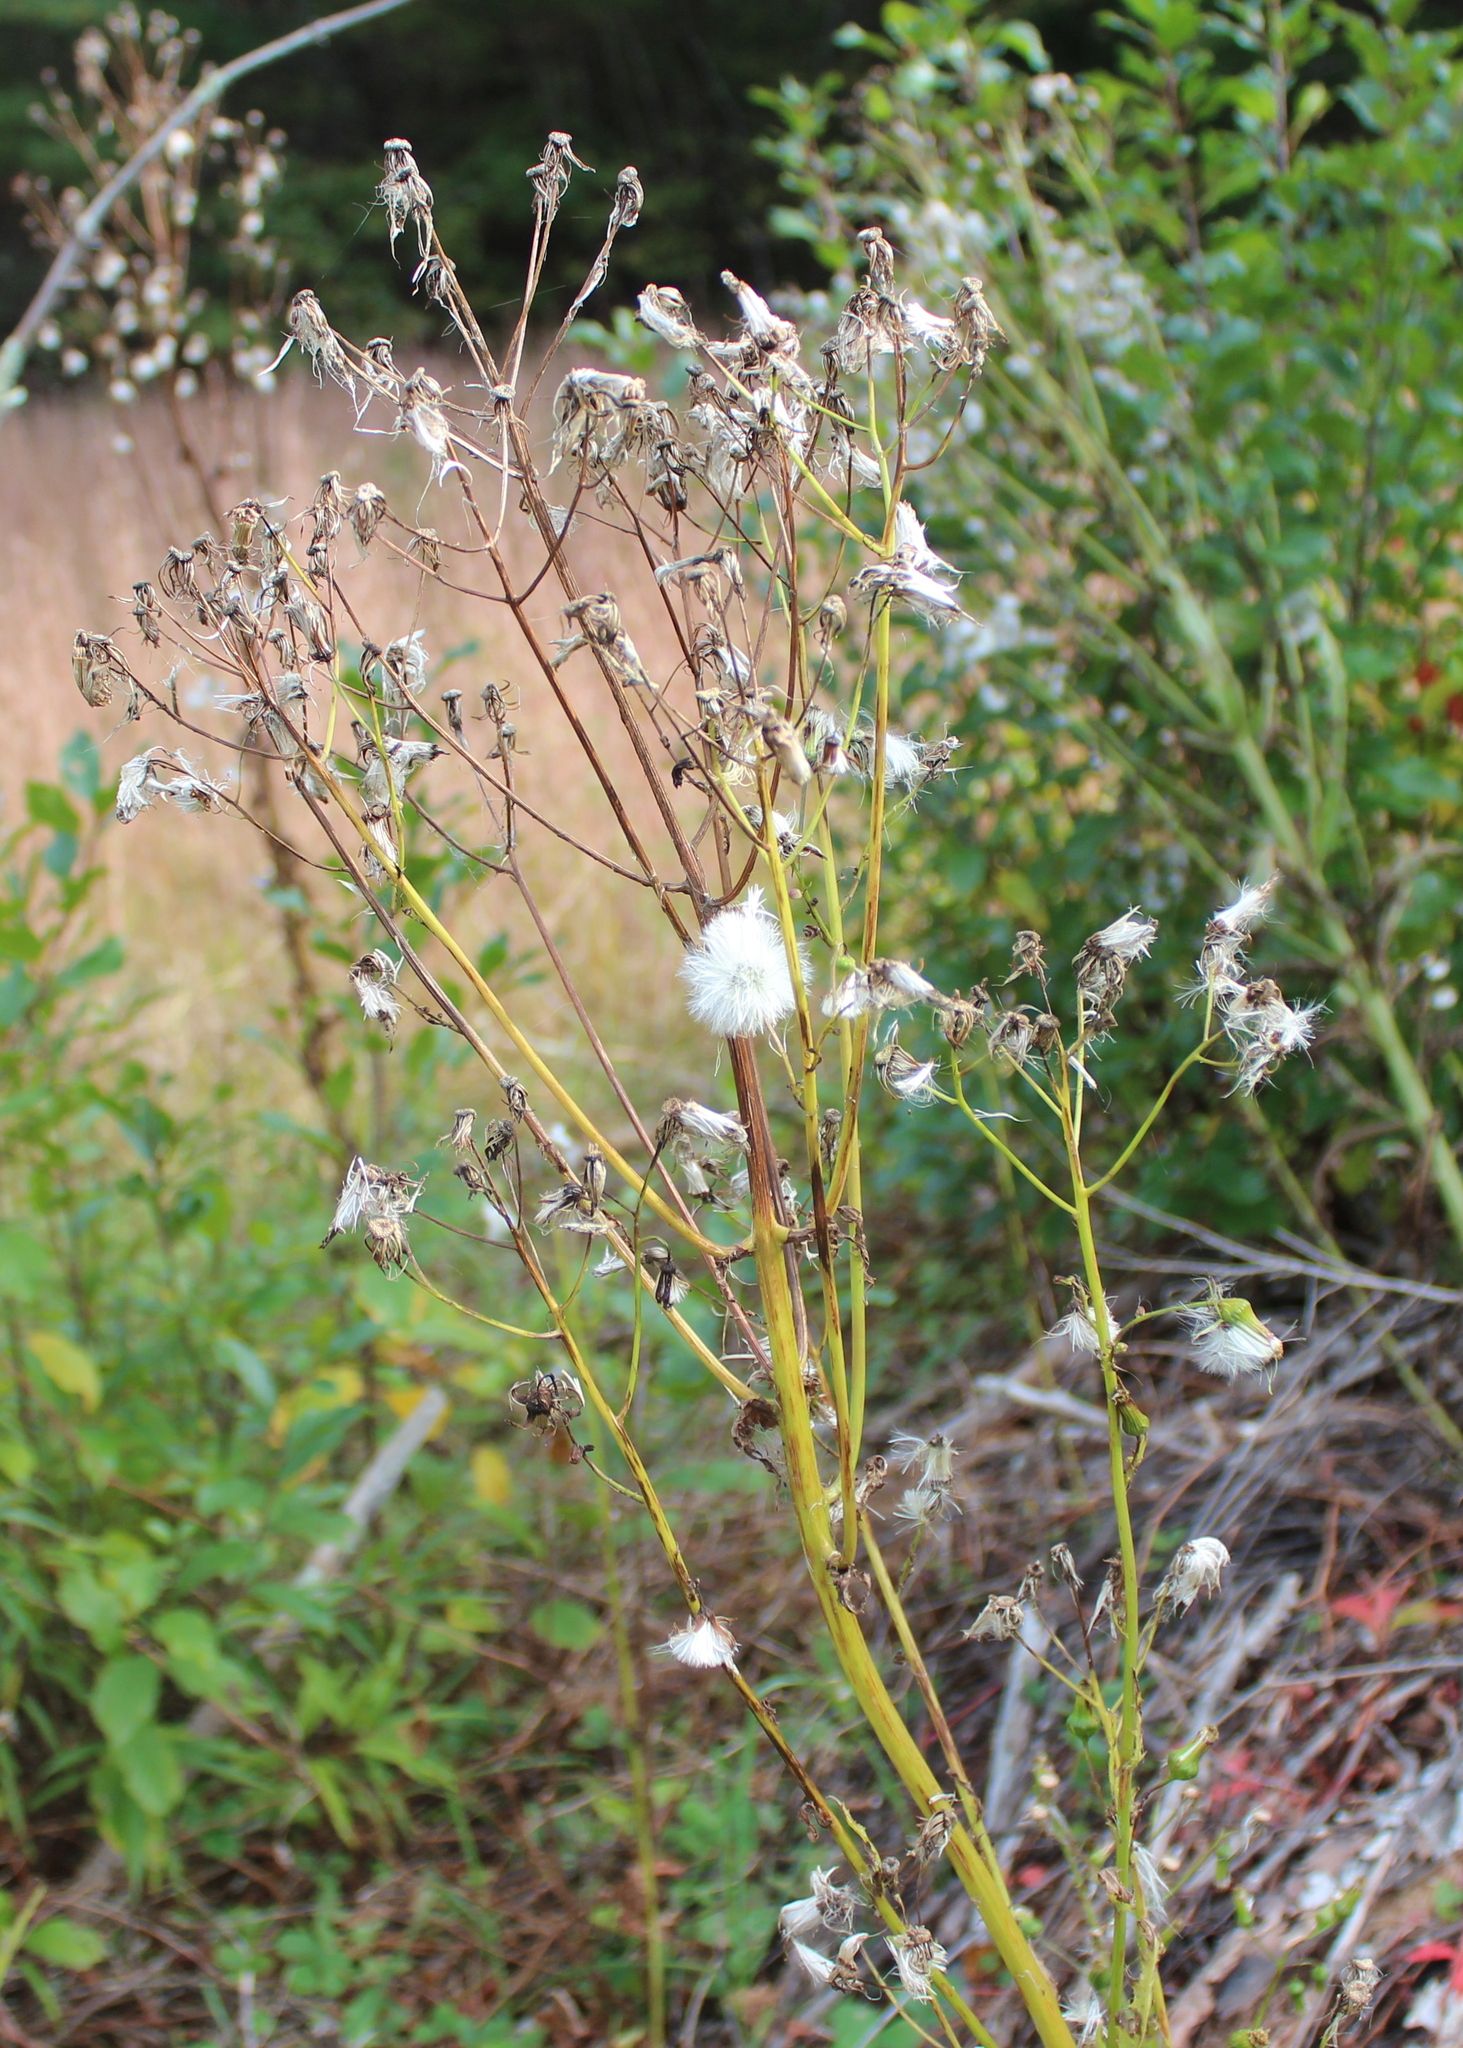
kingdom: Plantae
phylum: Tracheophyta
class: Magnoliopsida
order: Asterales
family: Asteraceae
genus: Erechtites
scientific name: Erechtites hieraciifolius
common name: American burnweed
